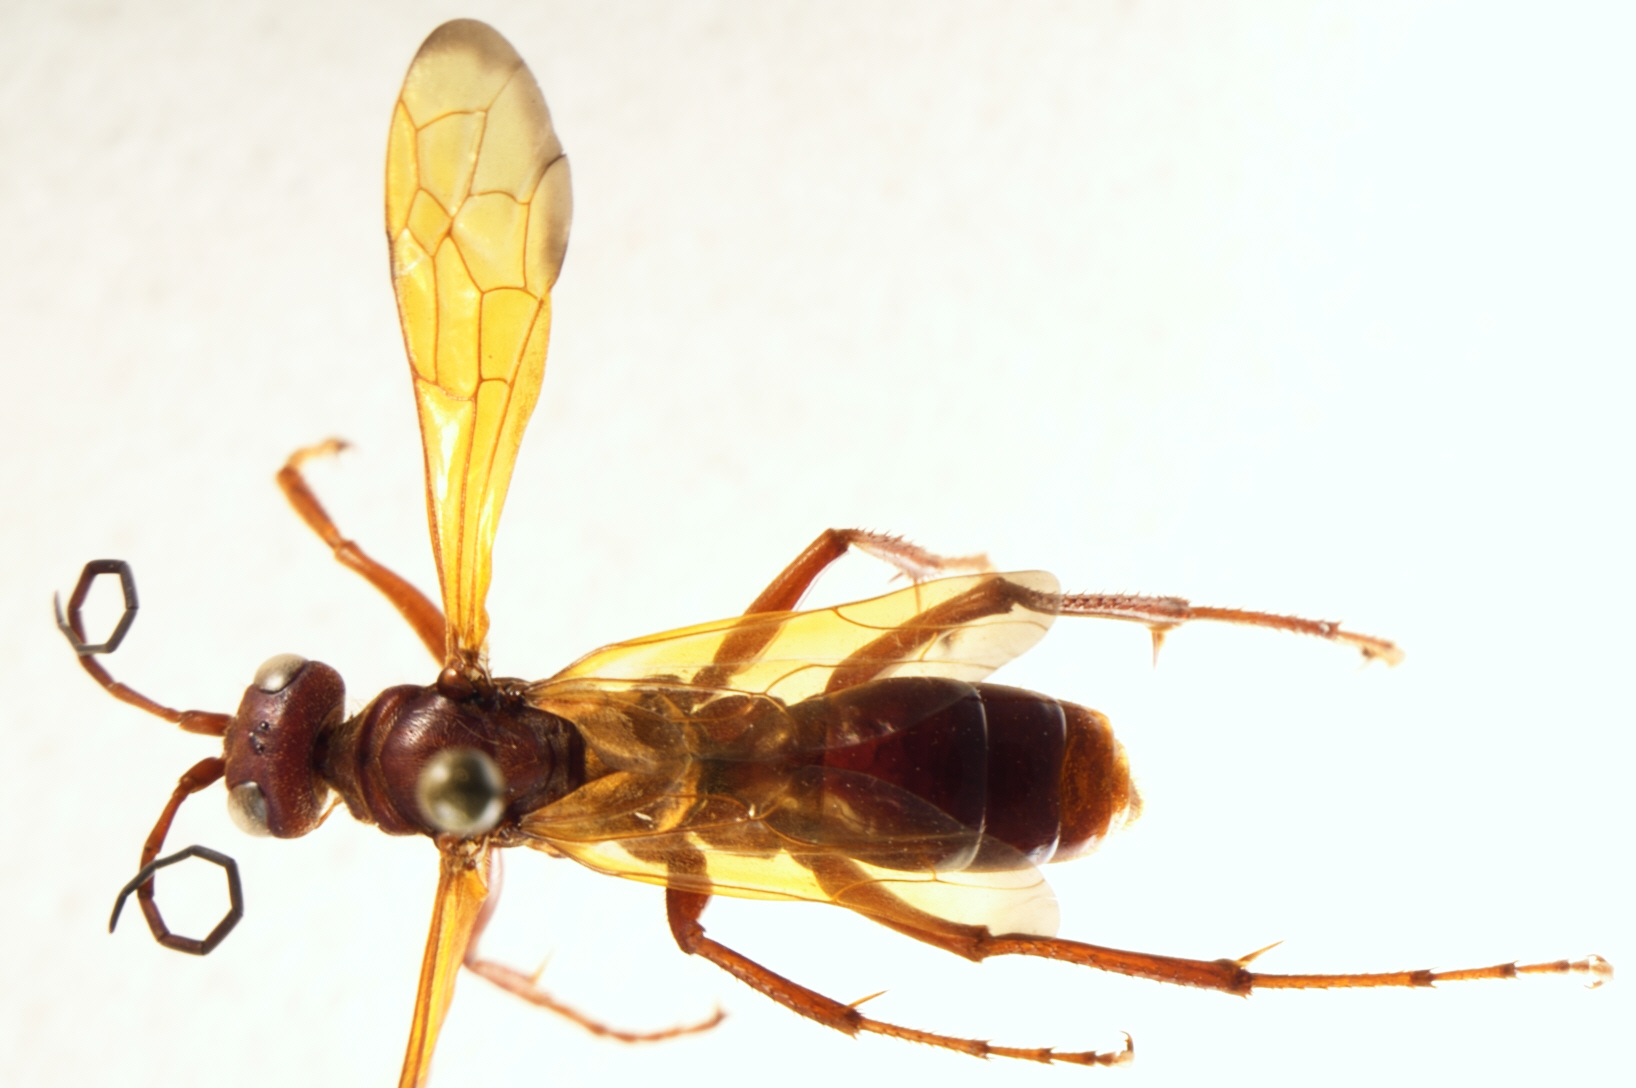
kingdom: Animalia
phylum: Arthropoda
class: Insecta
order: Hymenoptera
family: Pompilidae
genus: Sphictostethus
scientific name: Sphictostethus nitidus
